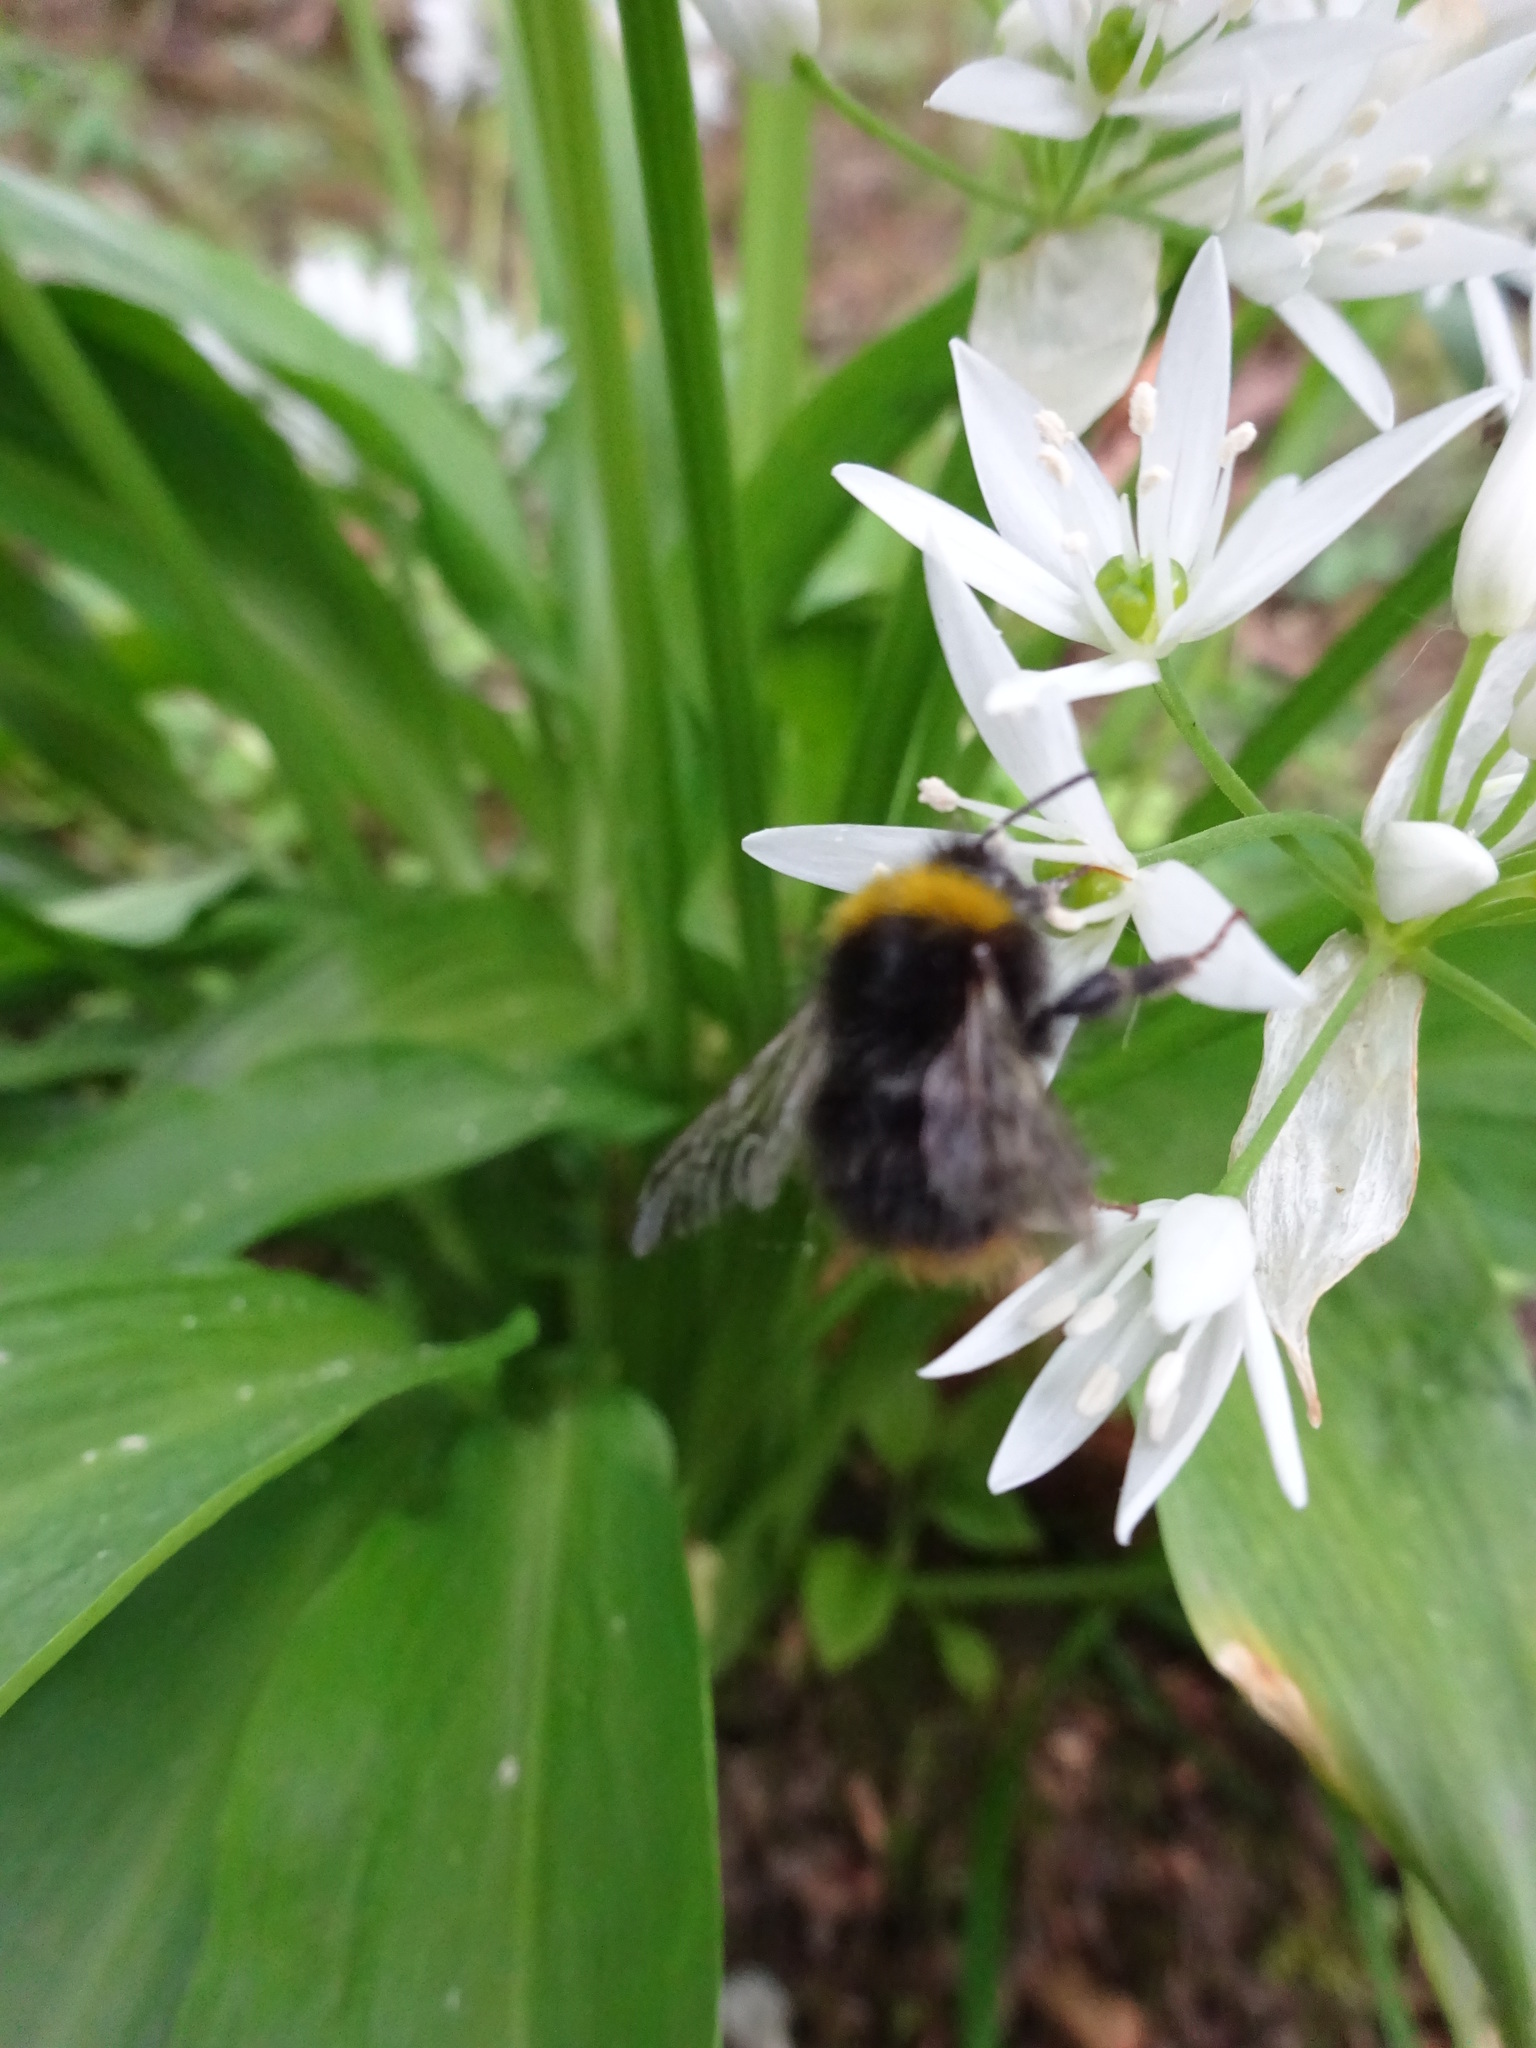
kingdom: Animalia
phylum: Arthropoda
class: Insecta
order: Hymenoptera
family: Apidae
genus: Bombus
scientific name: Bombus pratorum
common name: Early humble-bee
